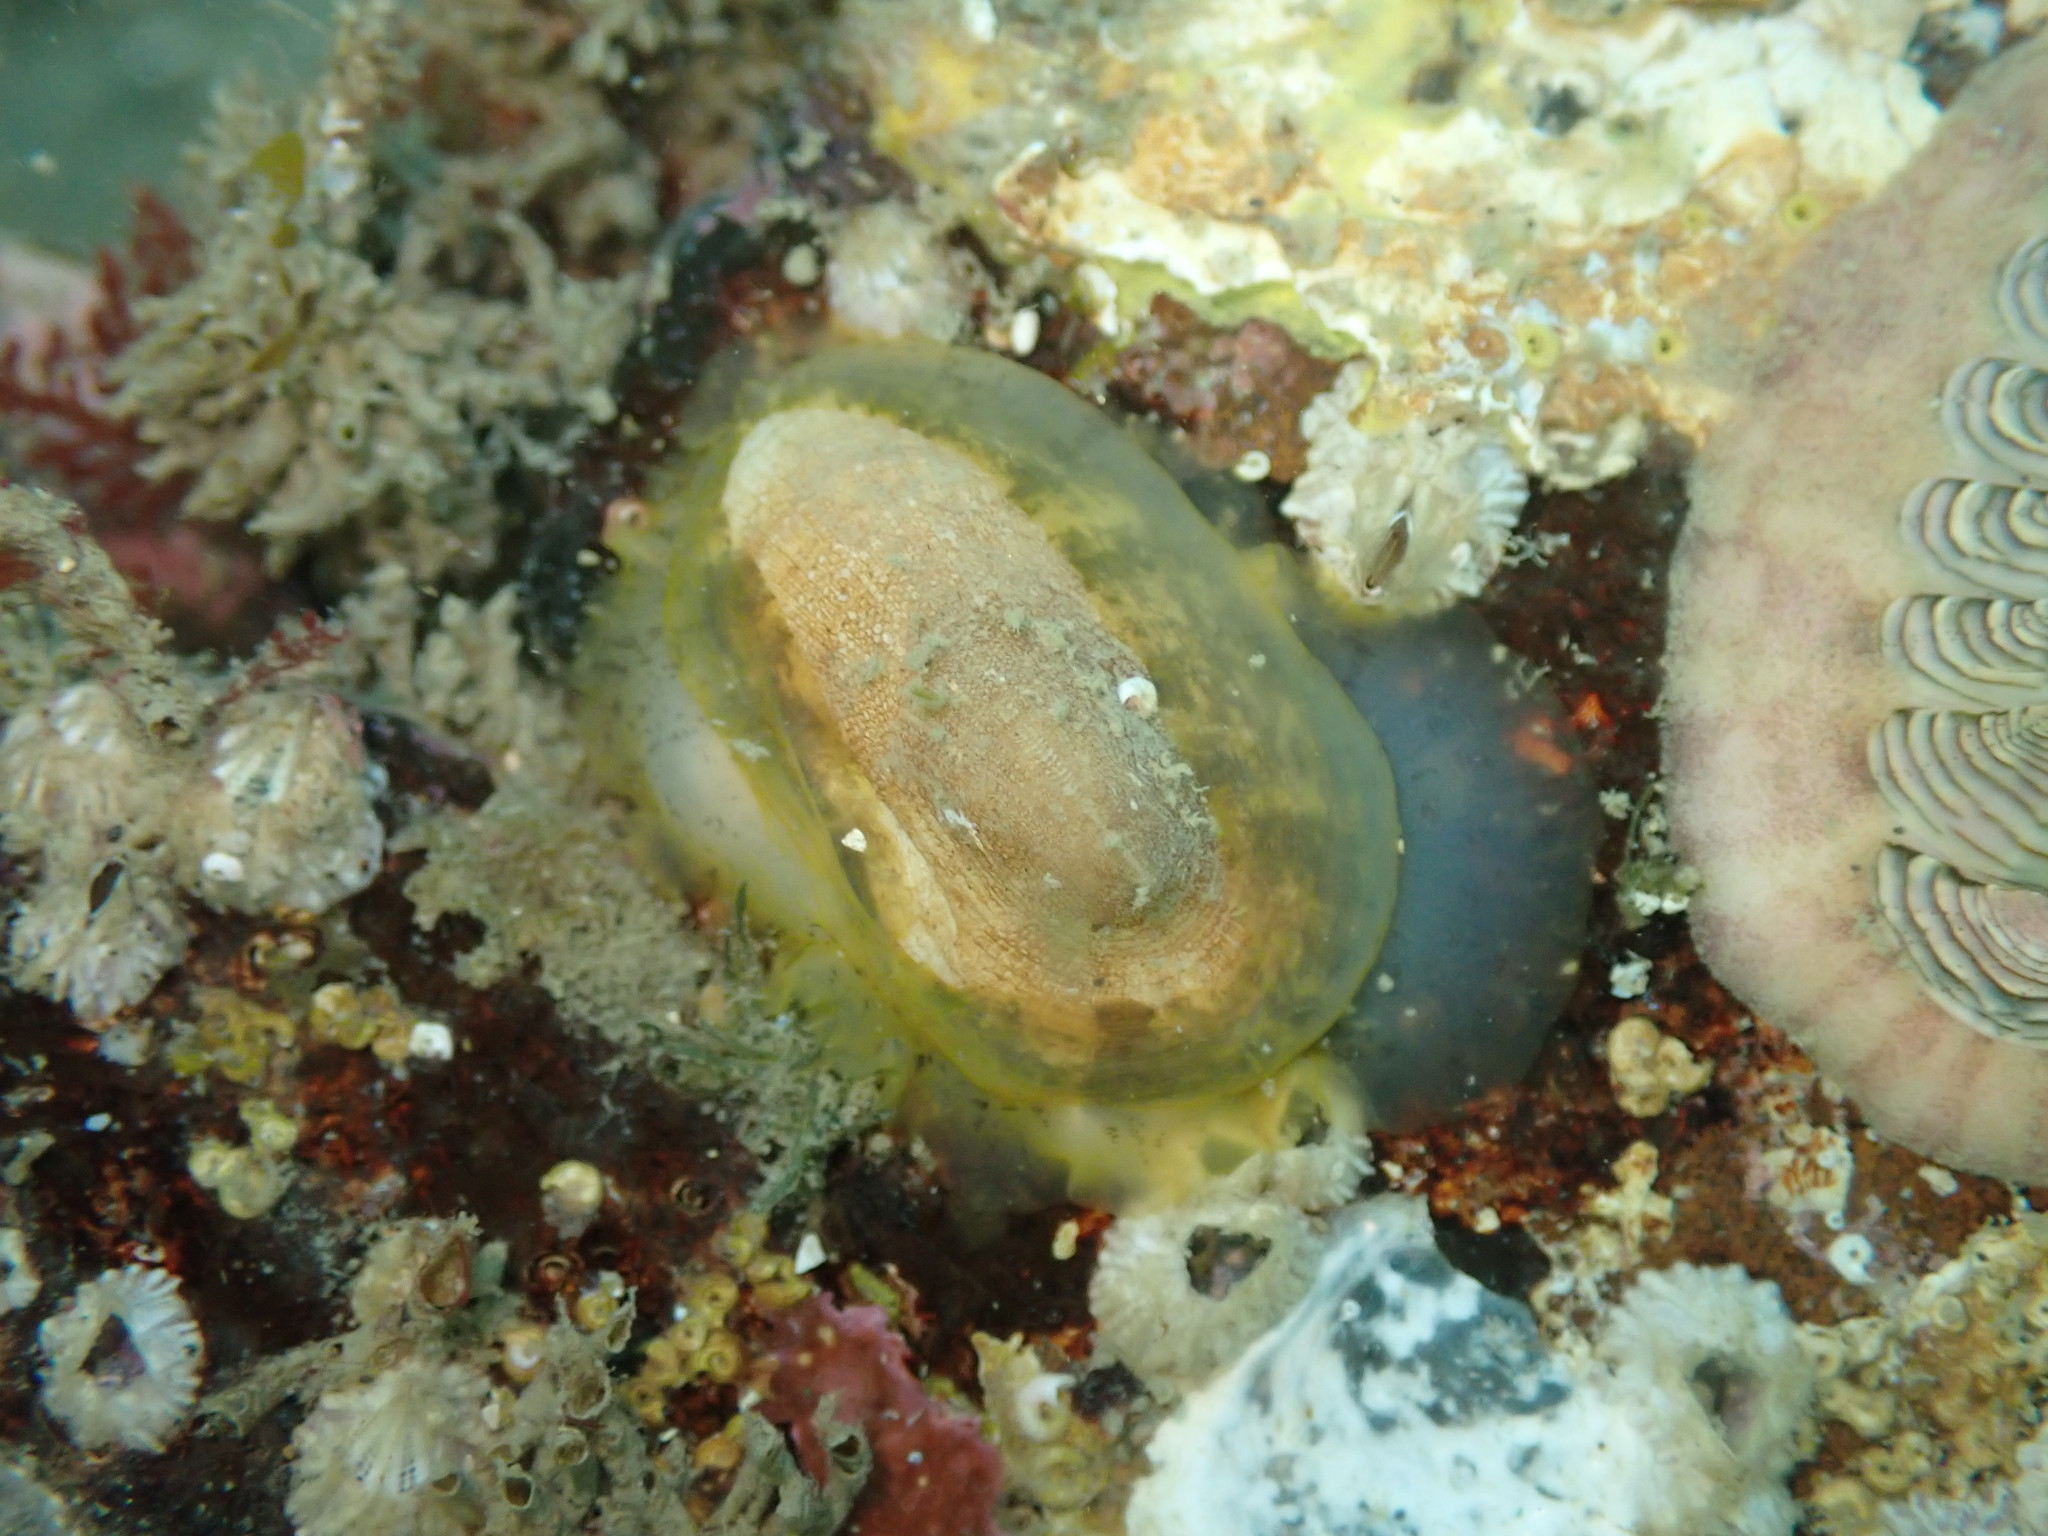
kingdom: Animalia
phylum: Mollusca
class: Gastropoda
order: Lepetellida
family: Fissurellidae
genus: Tugali
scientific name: Tugali elegans
